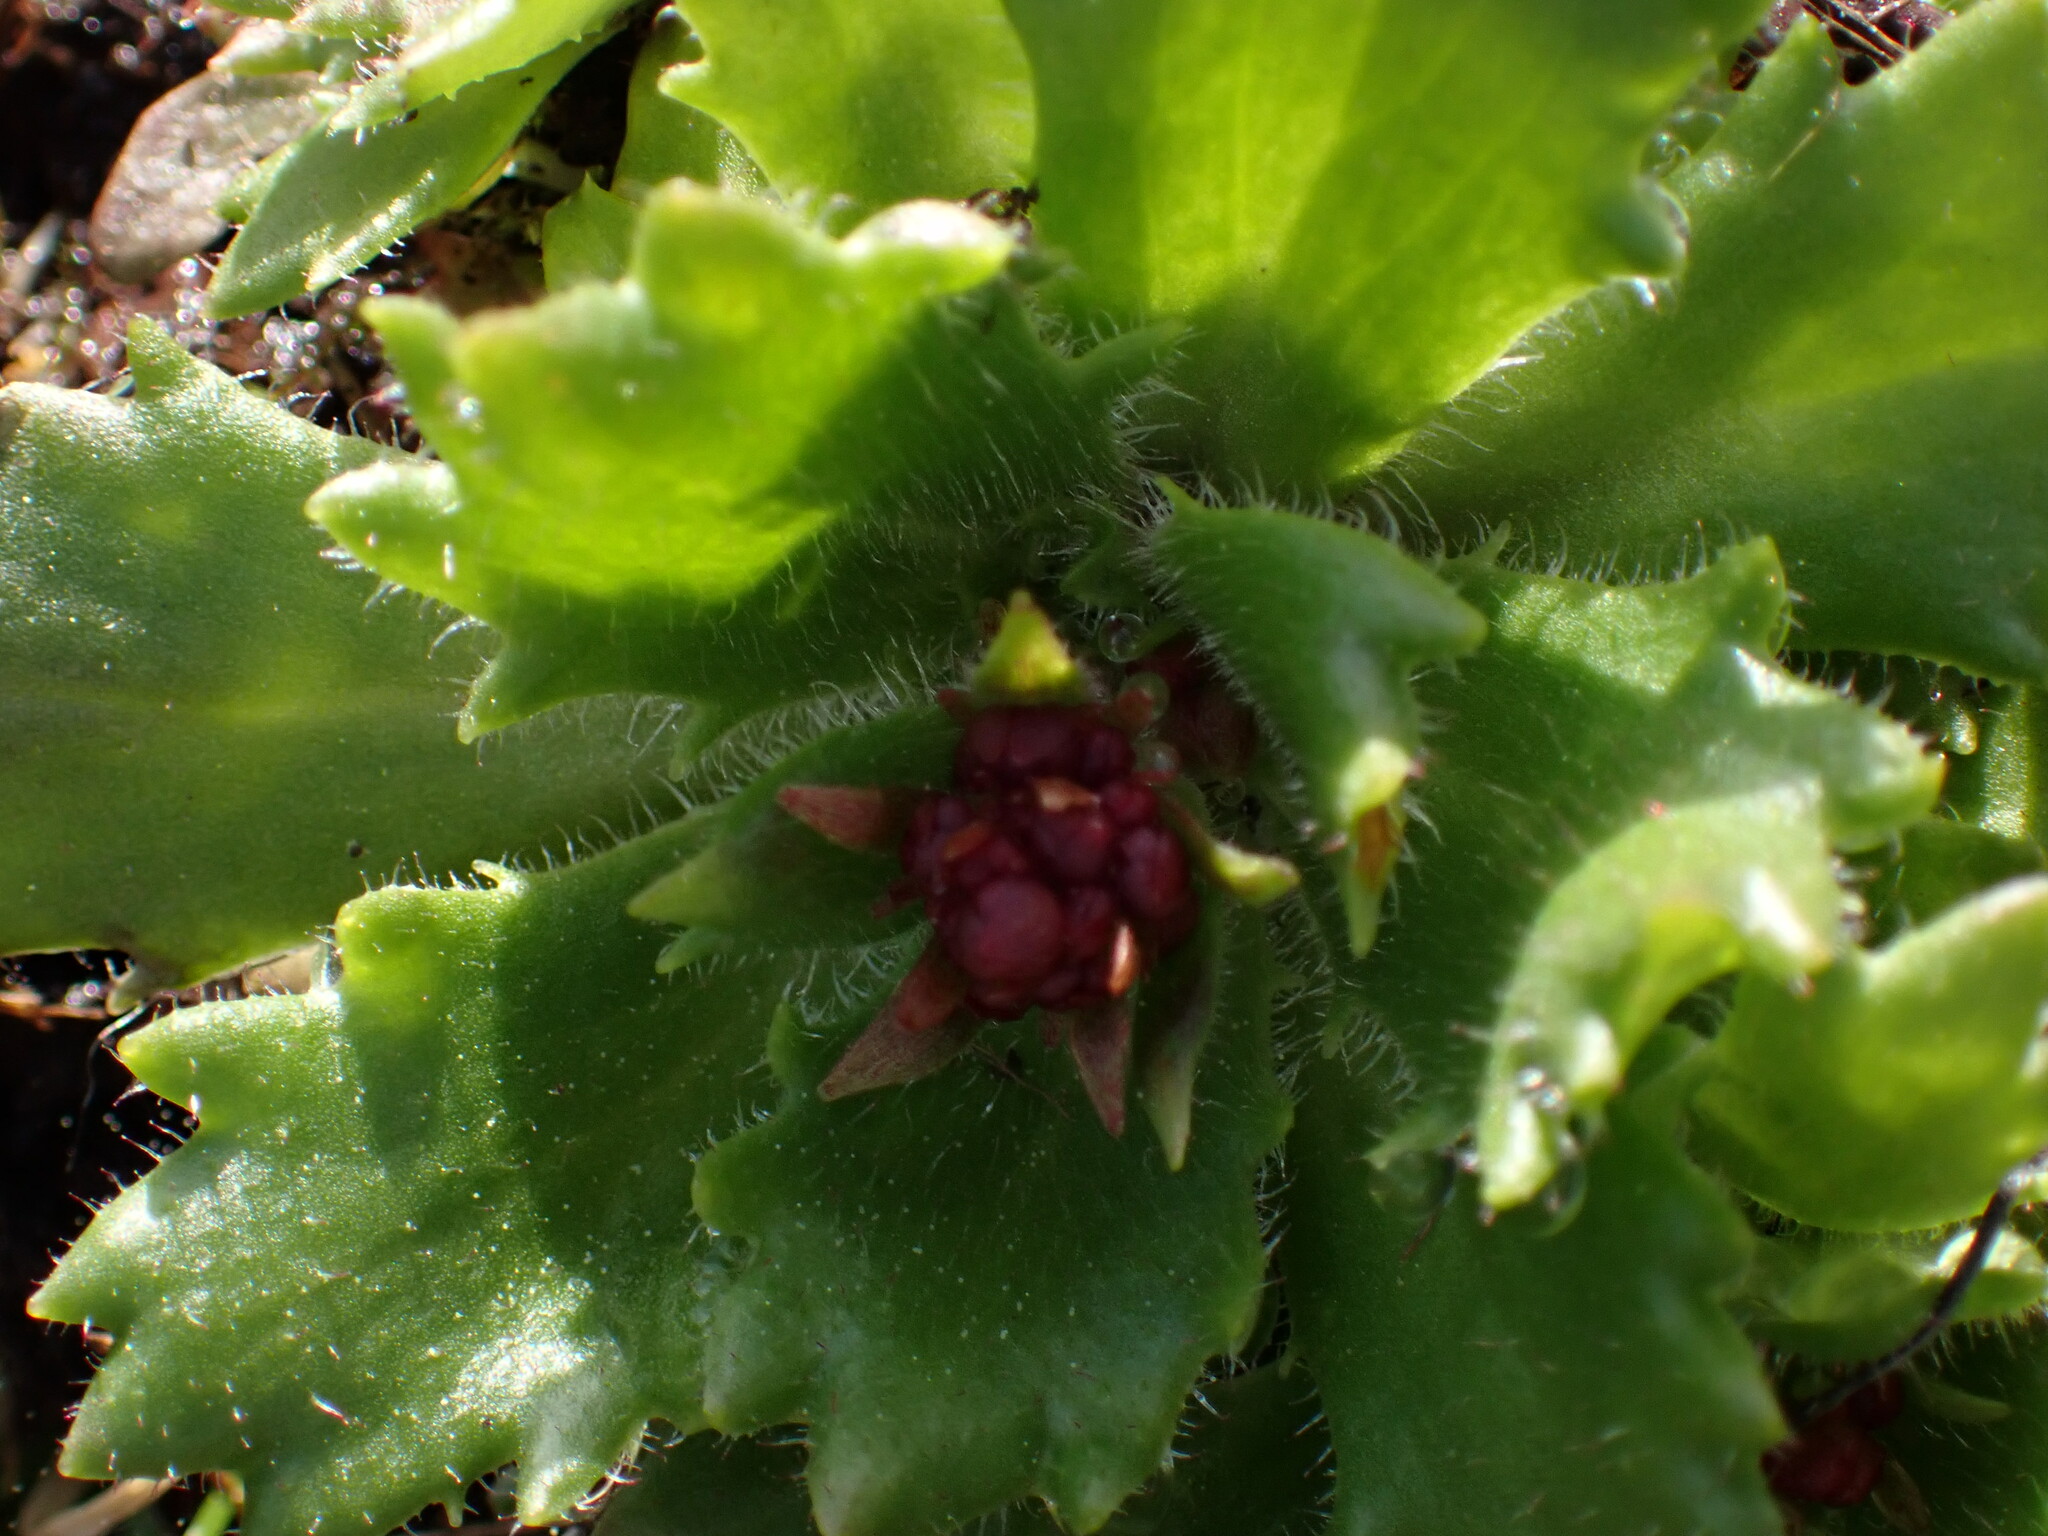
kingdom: Plantae
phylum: Tracheophyta
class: Magnoliopsida
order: Saxifragales
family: Saxifragaceae
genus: Micranthes
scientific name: Micranthes ferruginea
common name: Rusty saxifrage
